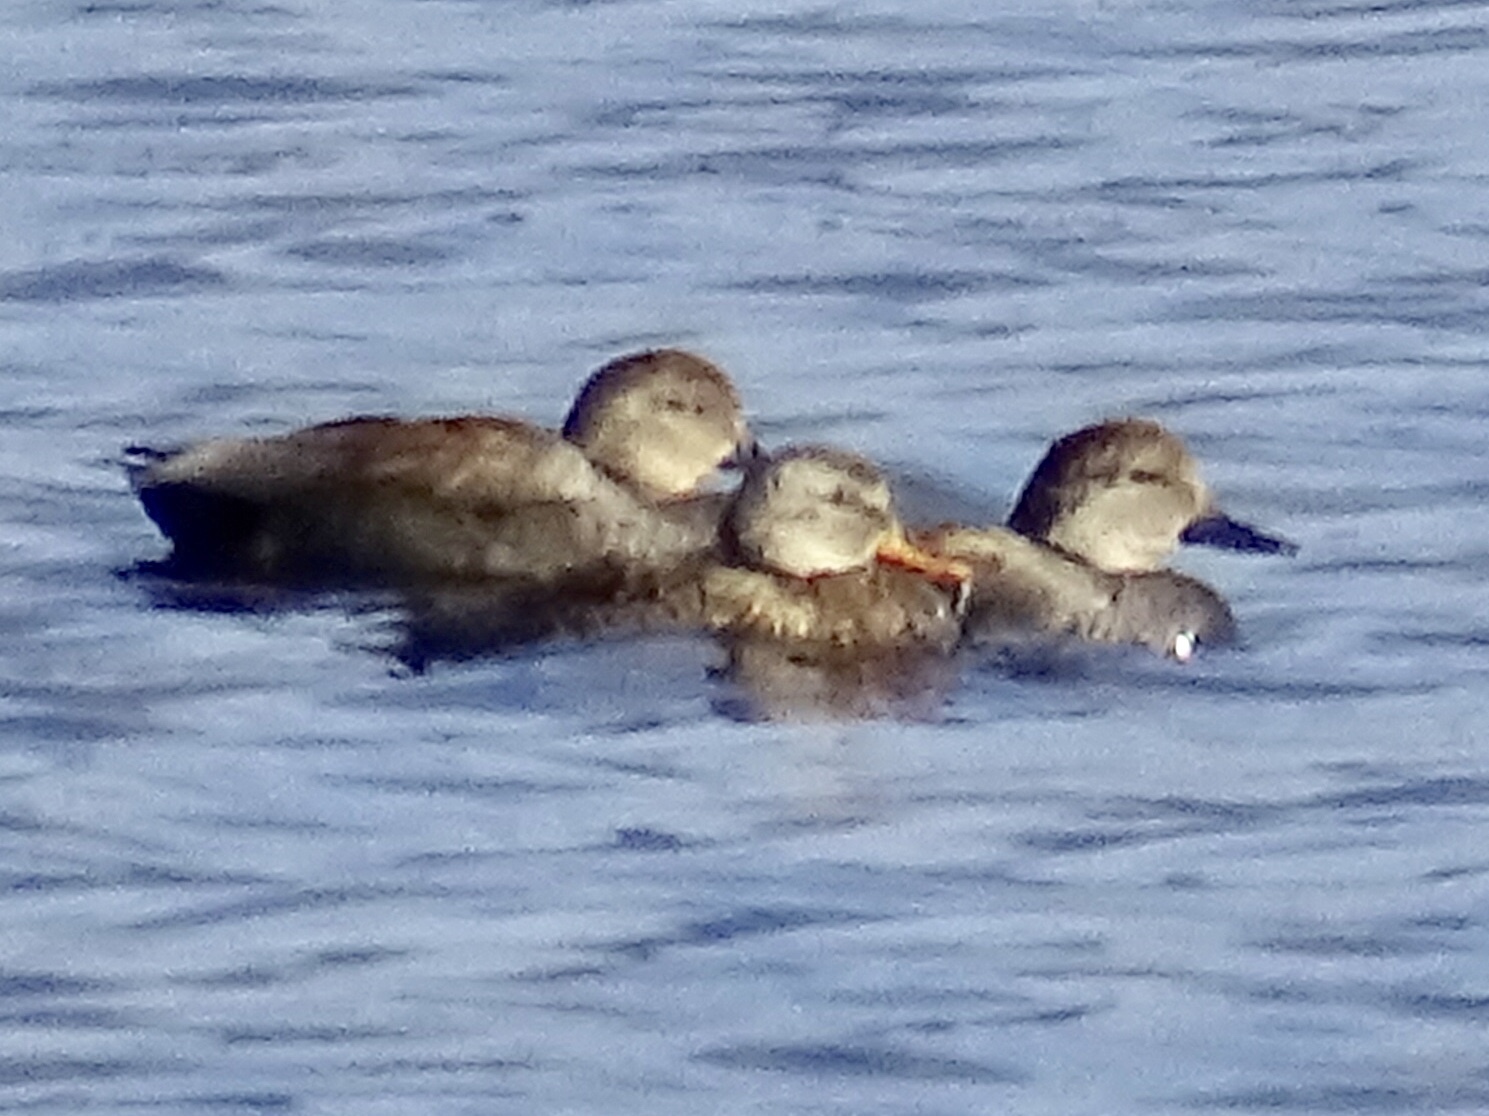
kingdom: Animalia
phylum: Chordata
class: Aves
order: Anseriformes
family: Anatidae
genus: Mareca
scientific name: Mareca strepera
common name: Gadwall
